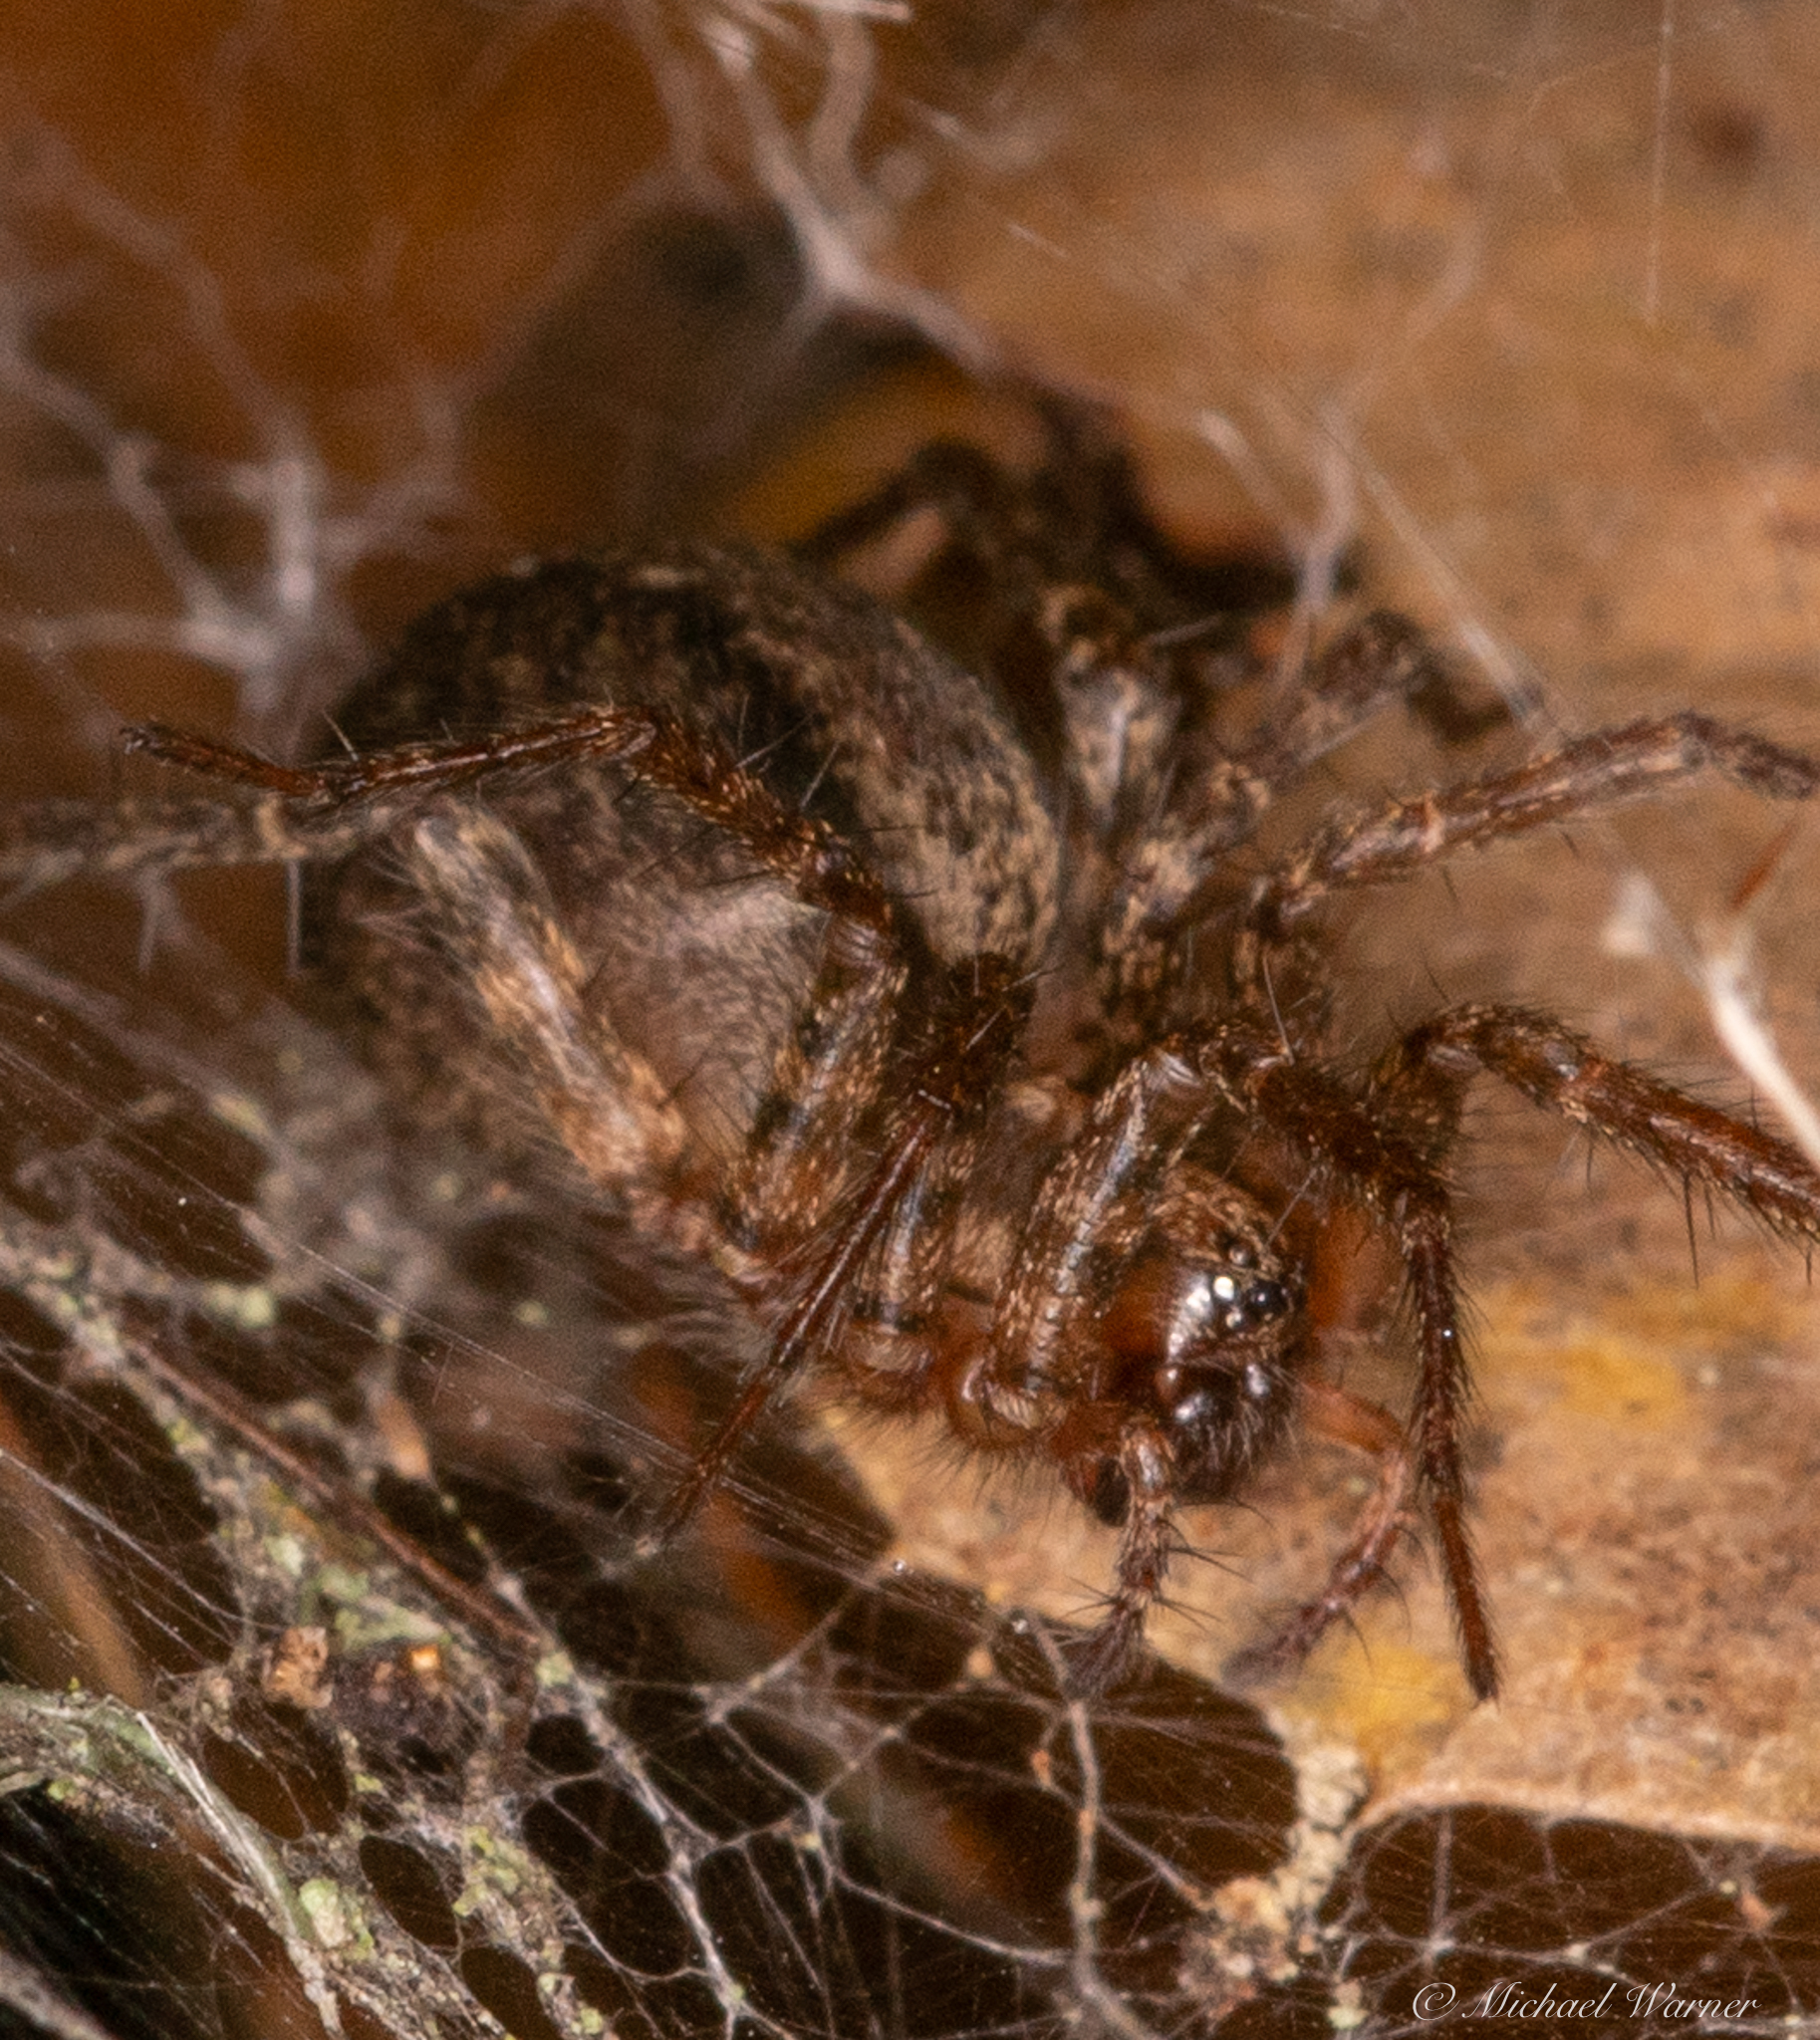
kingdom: Animalia
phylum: Arthropoda
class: Arachnida
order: Araneae
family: Agelenidae
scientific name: Agelenidae
